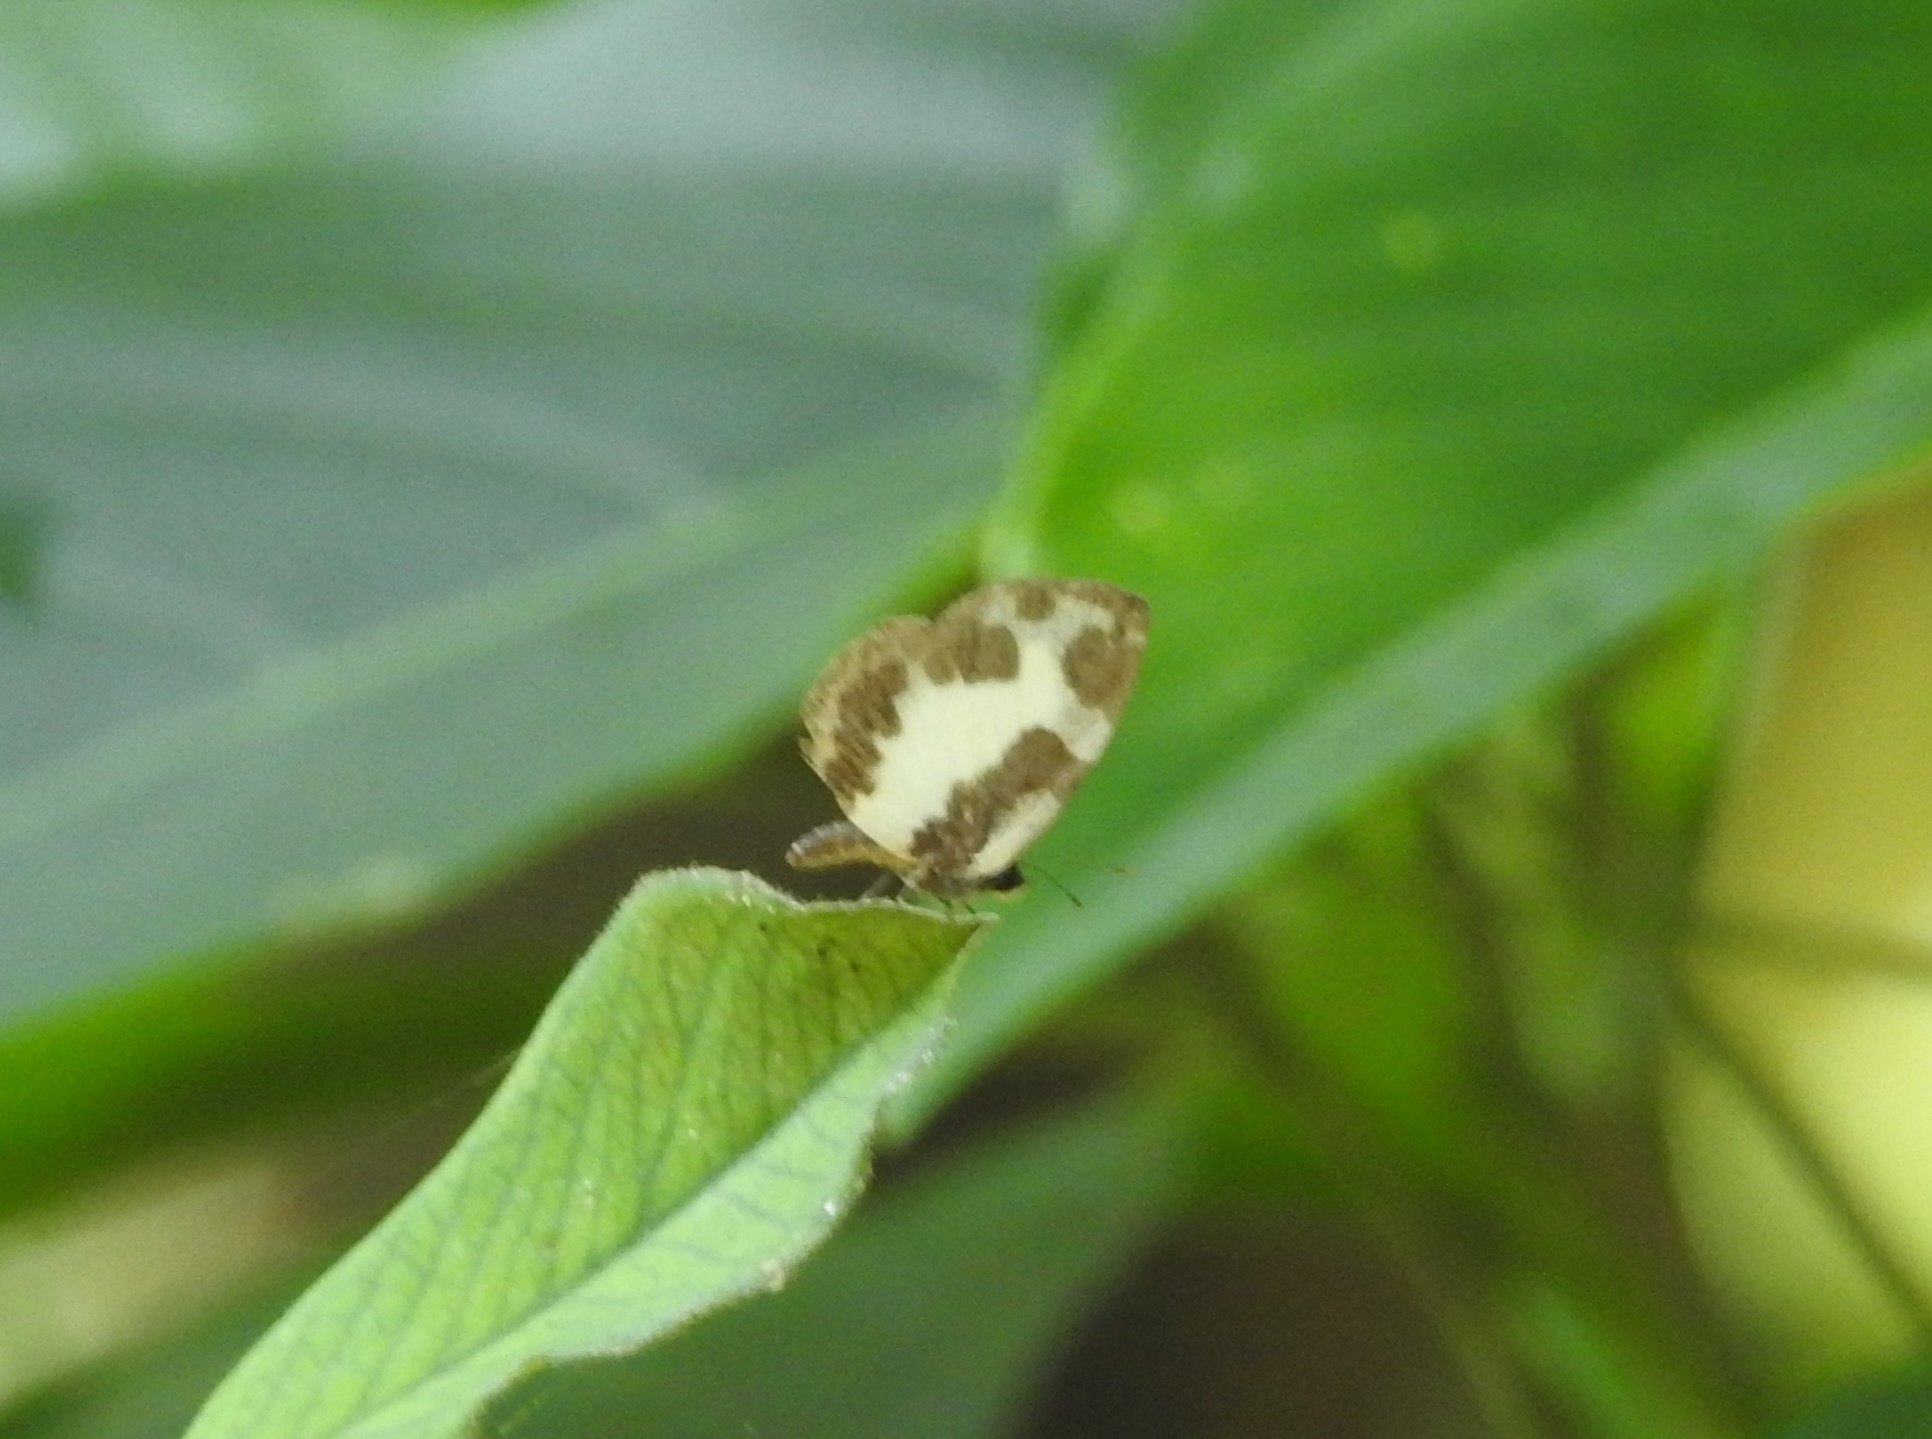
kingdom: Animalia
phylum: Arthropoda
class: Insecta
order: Lepidoptera
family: Lycaenidae
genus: Caleta
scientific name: Caleta elna
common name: Elbowed pierrot
